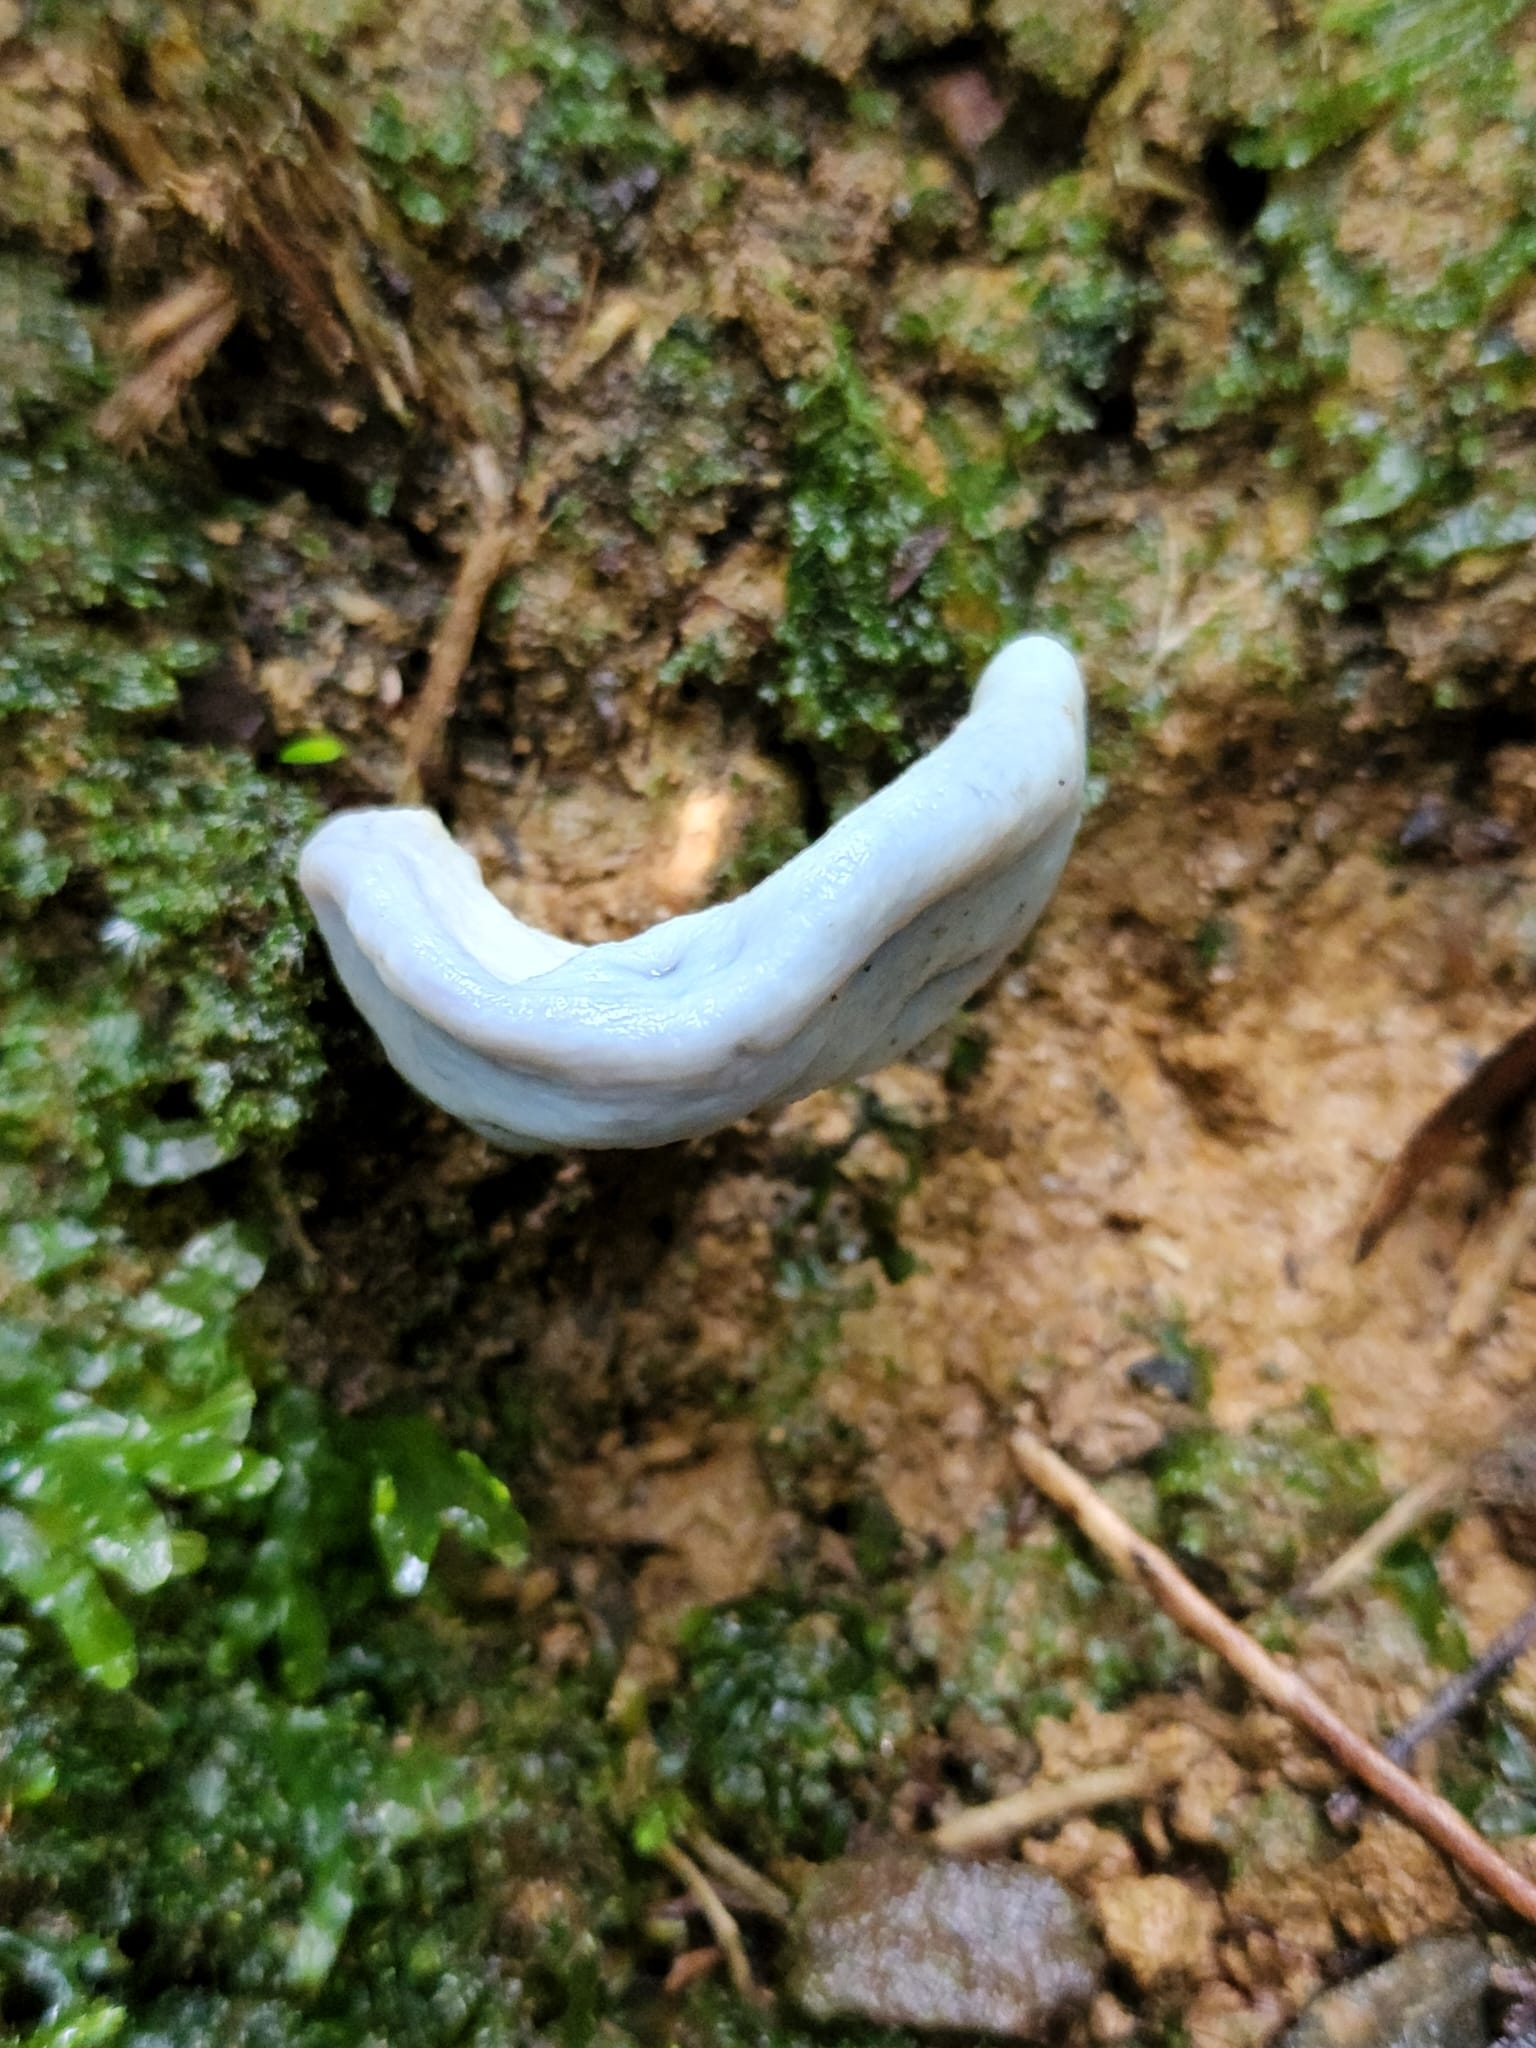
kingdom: Fungi
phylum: Basidiomycota
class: Agaricomycetes
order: Agaricales
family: Agaricaceae
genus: Clavogaster
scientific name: Clavogaster virescens
